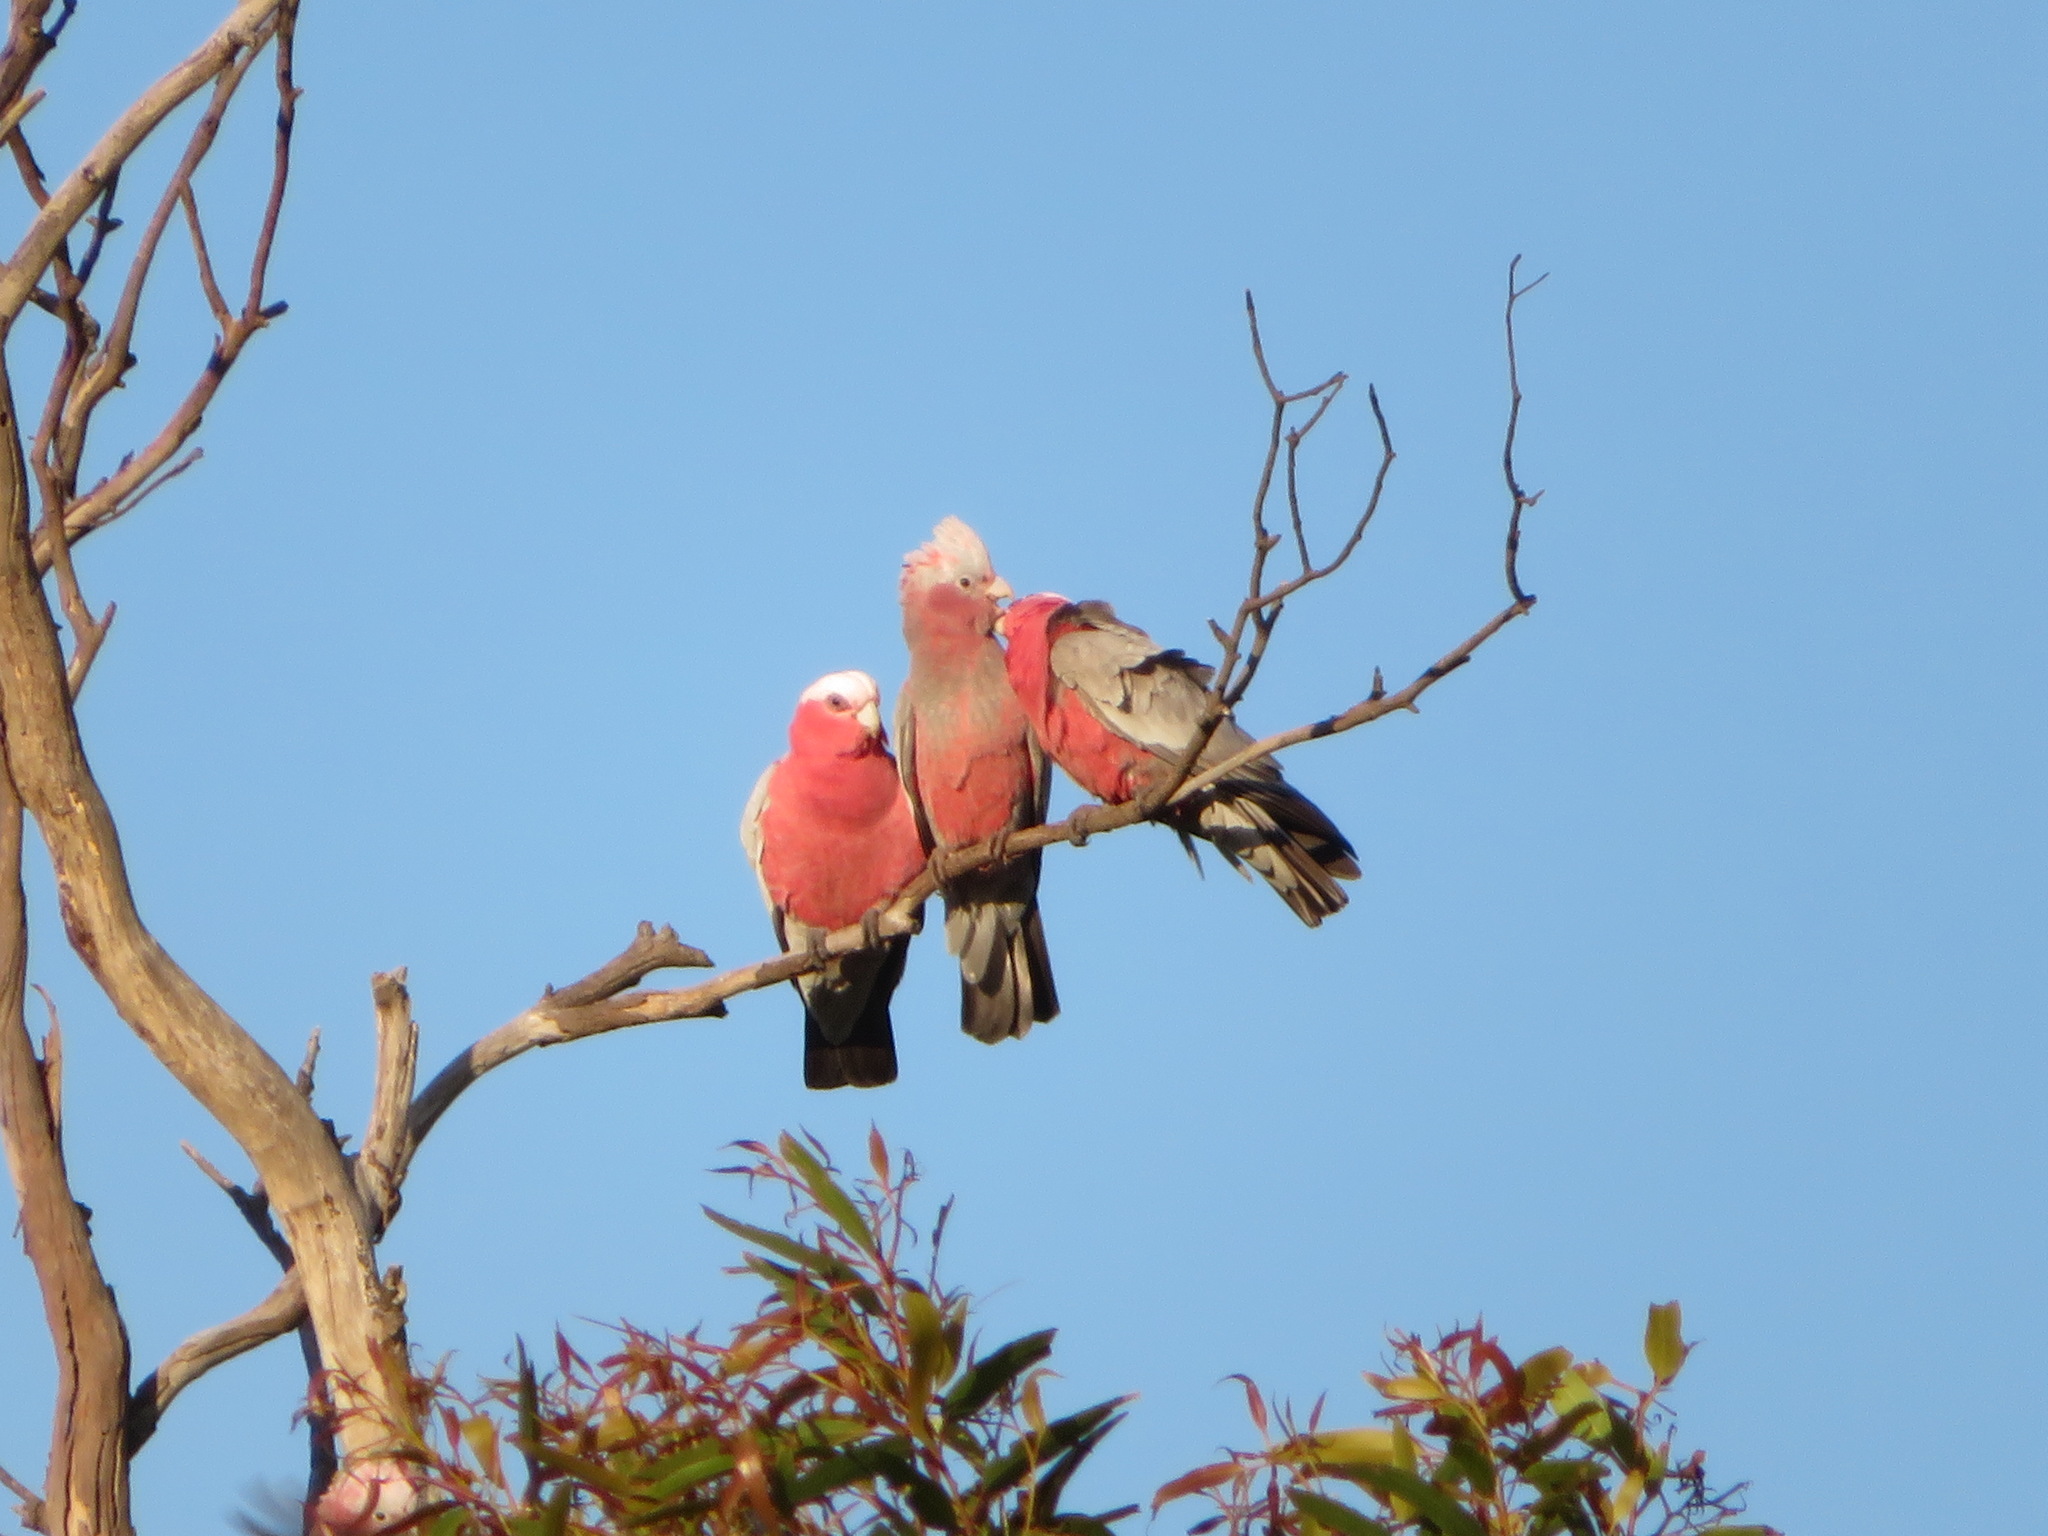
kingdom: Animalia
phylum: Chordata
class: Aves
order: Psittaciformes
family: Psittacidae
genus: Eolophus
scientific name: Eolophus roseicapilla
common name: Galah
